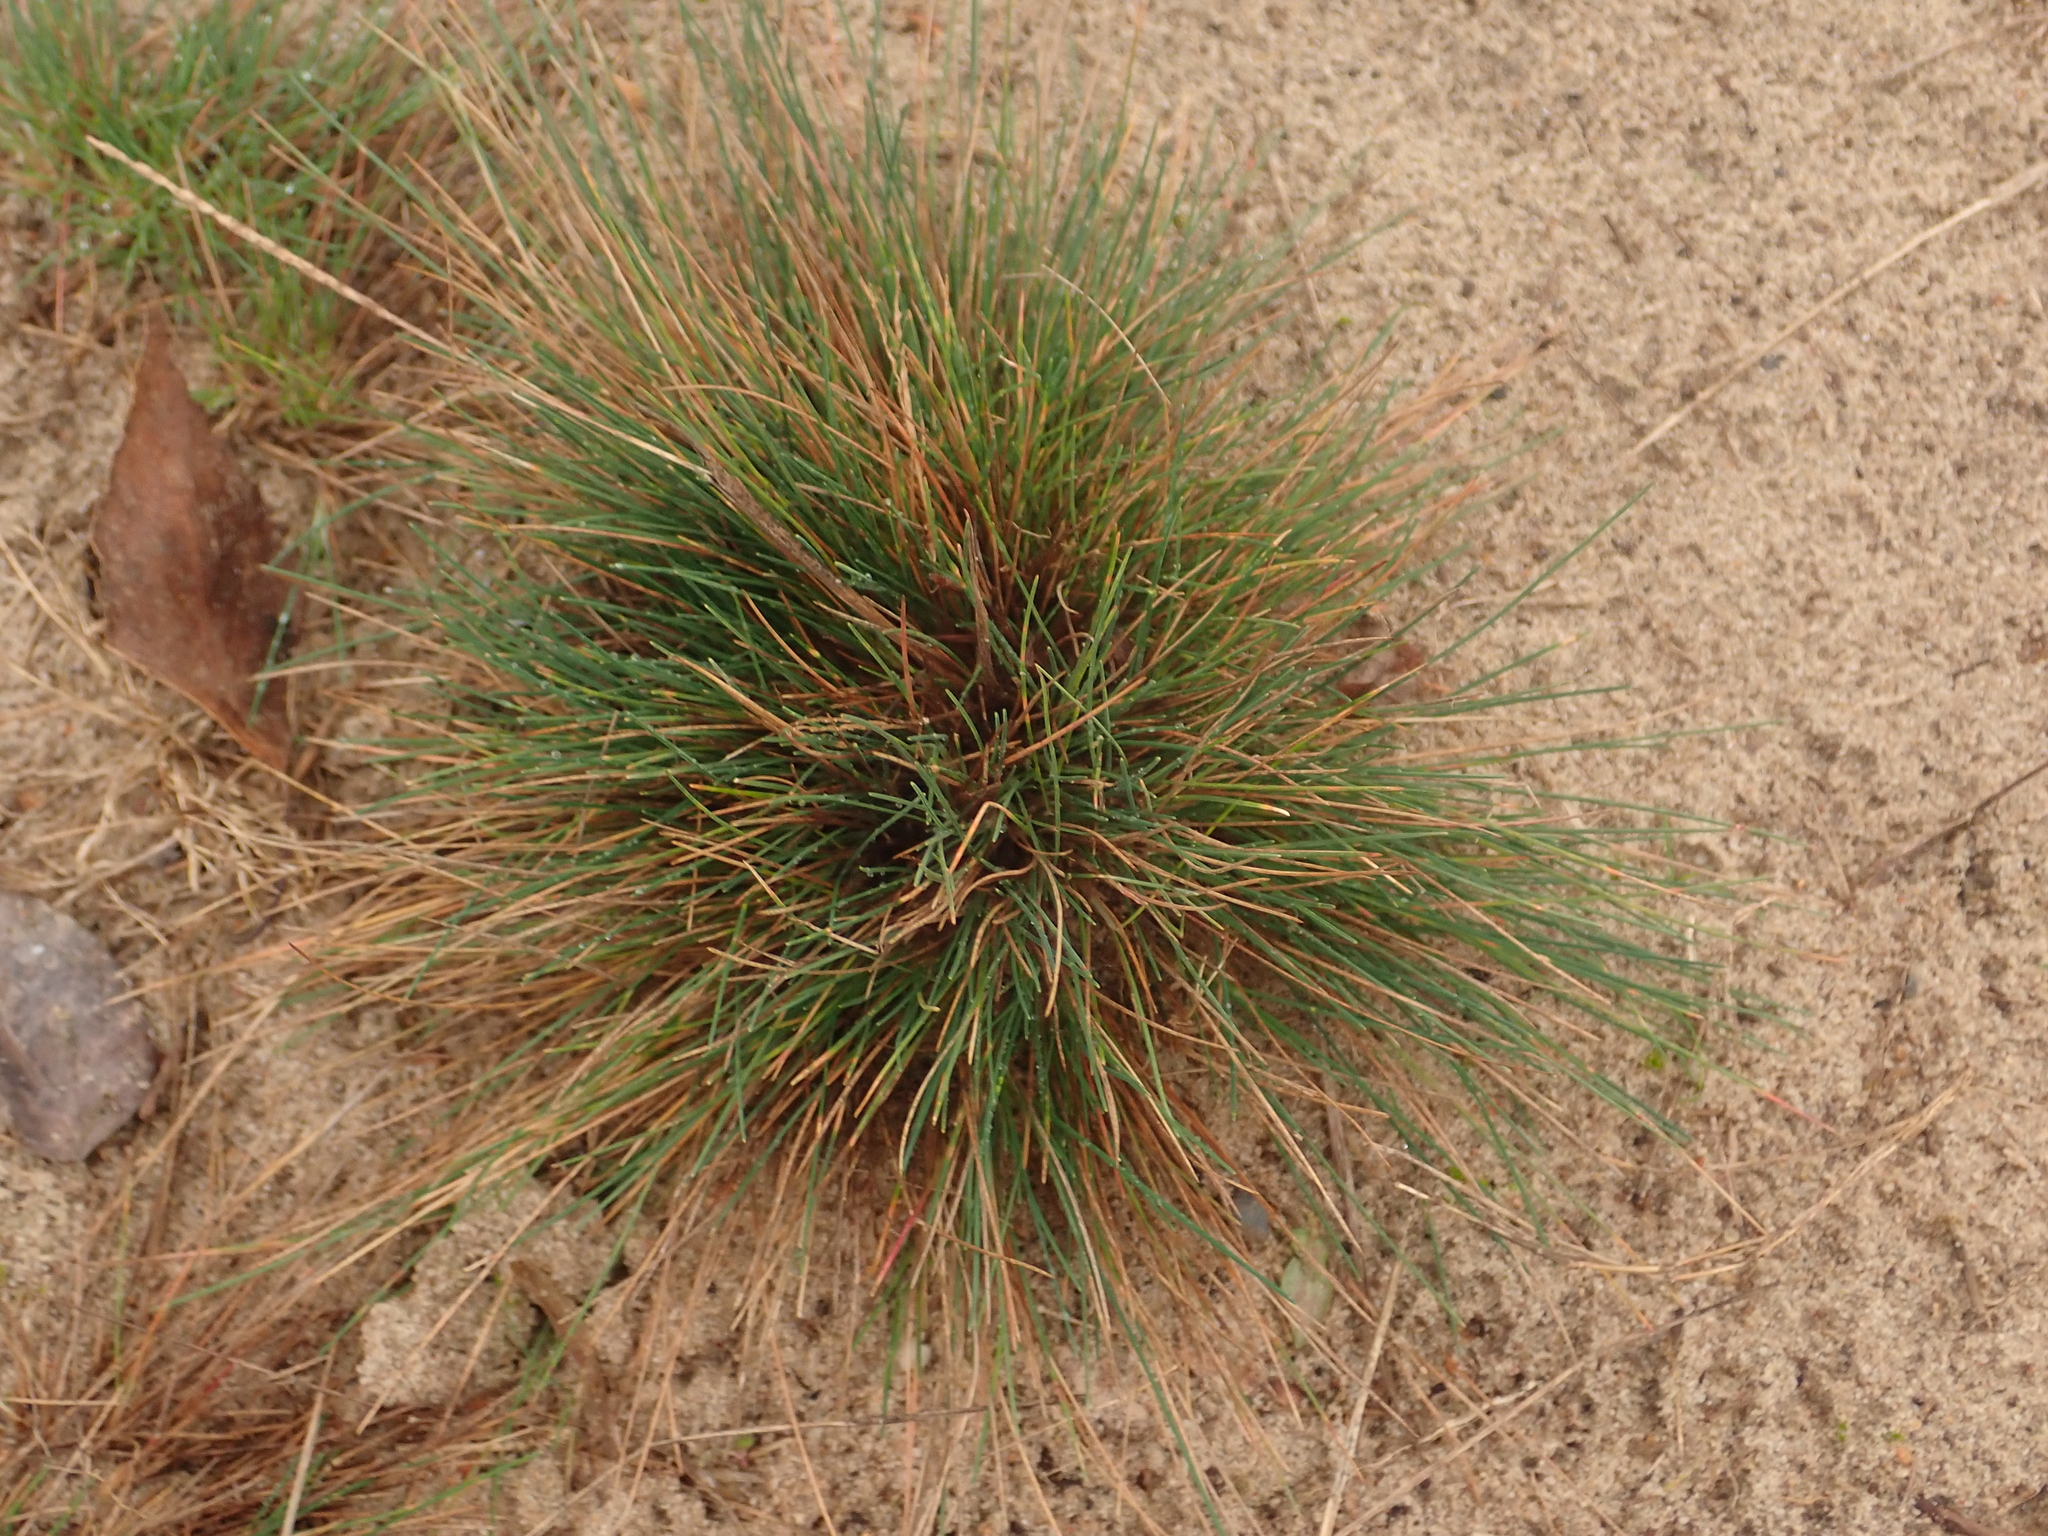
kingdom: Plantae
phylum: Tracheophyta
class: Liliopsida
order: Poales
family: Poaceae
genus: Corynephorus
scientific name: Corynephorus canescens
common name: Grey hair-grass
